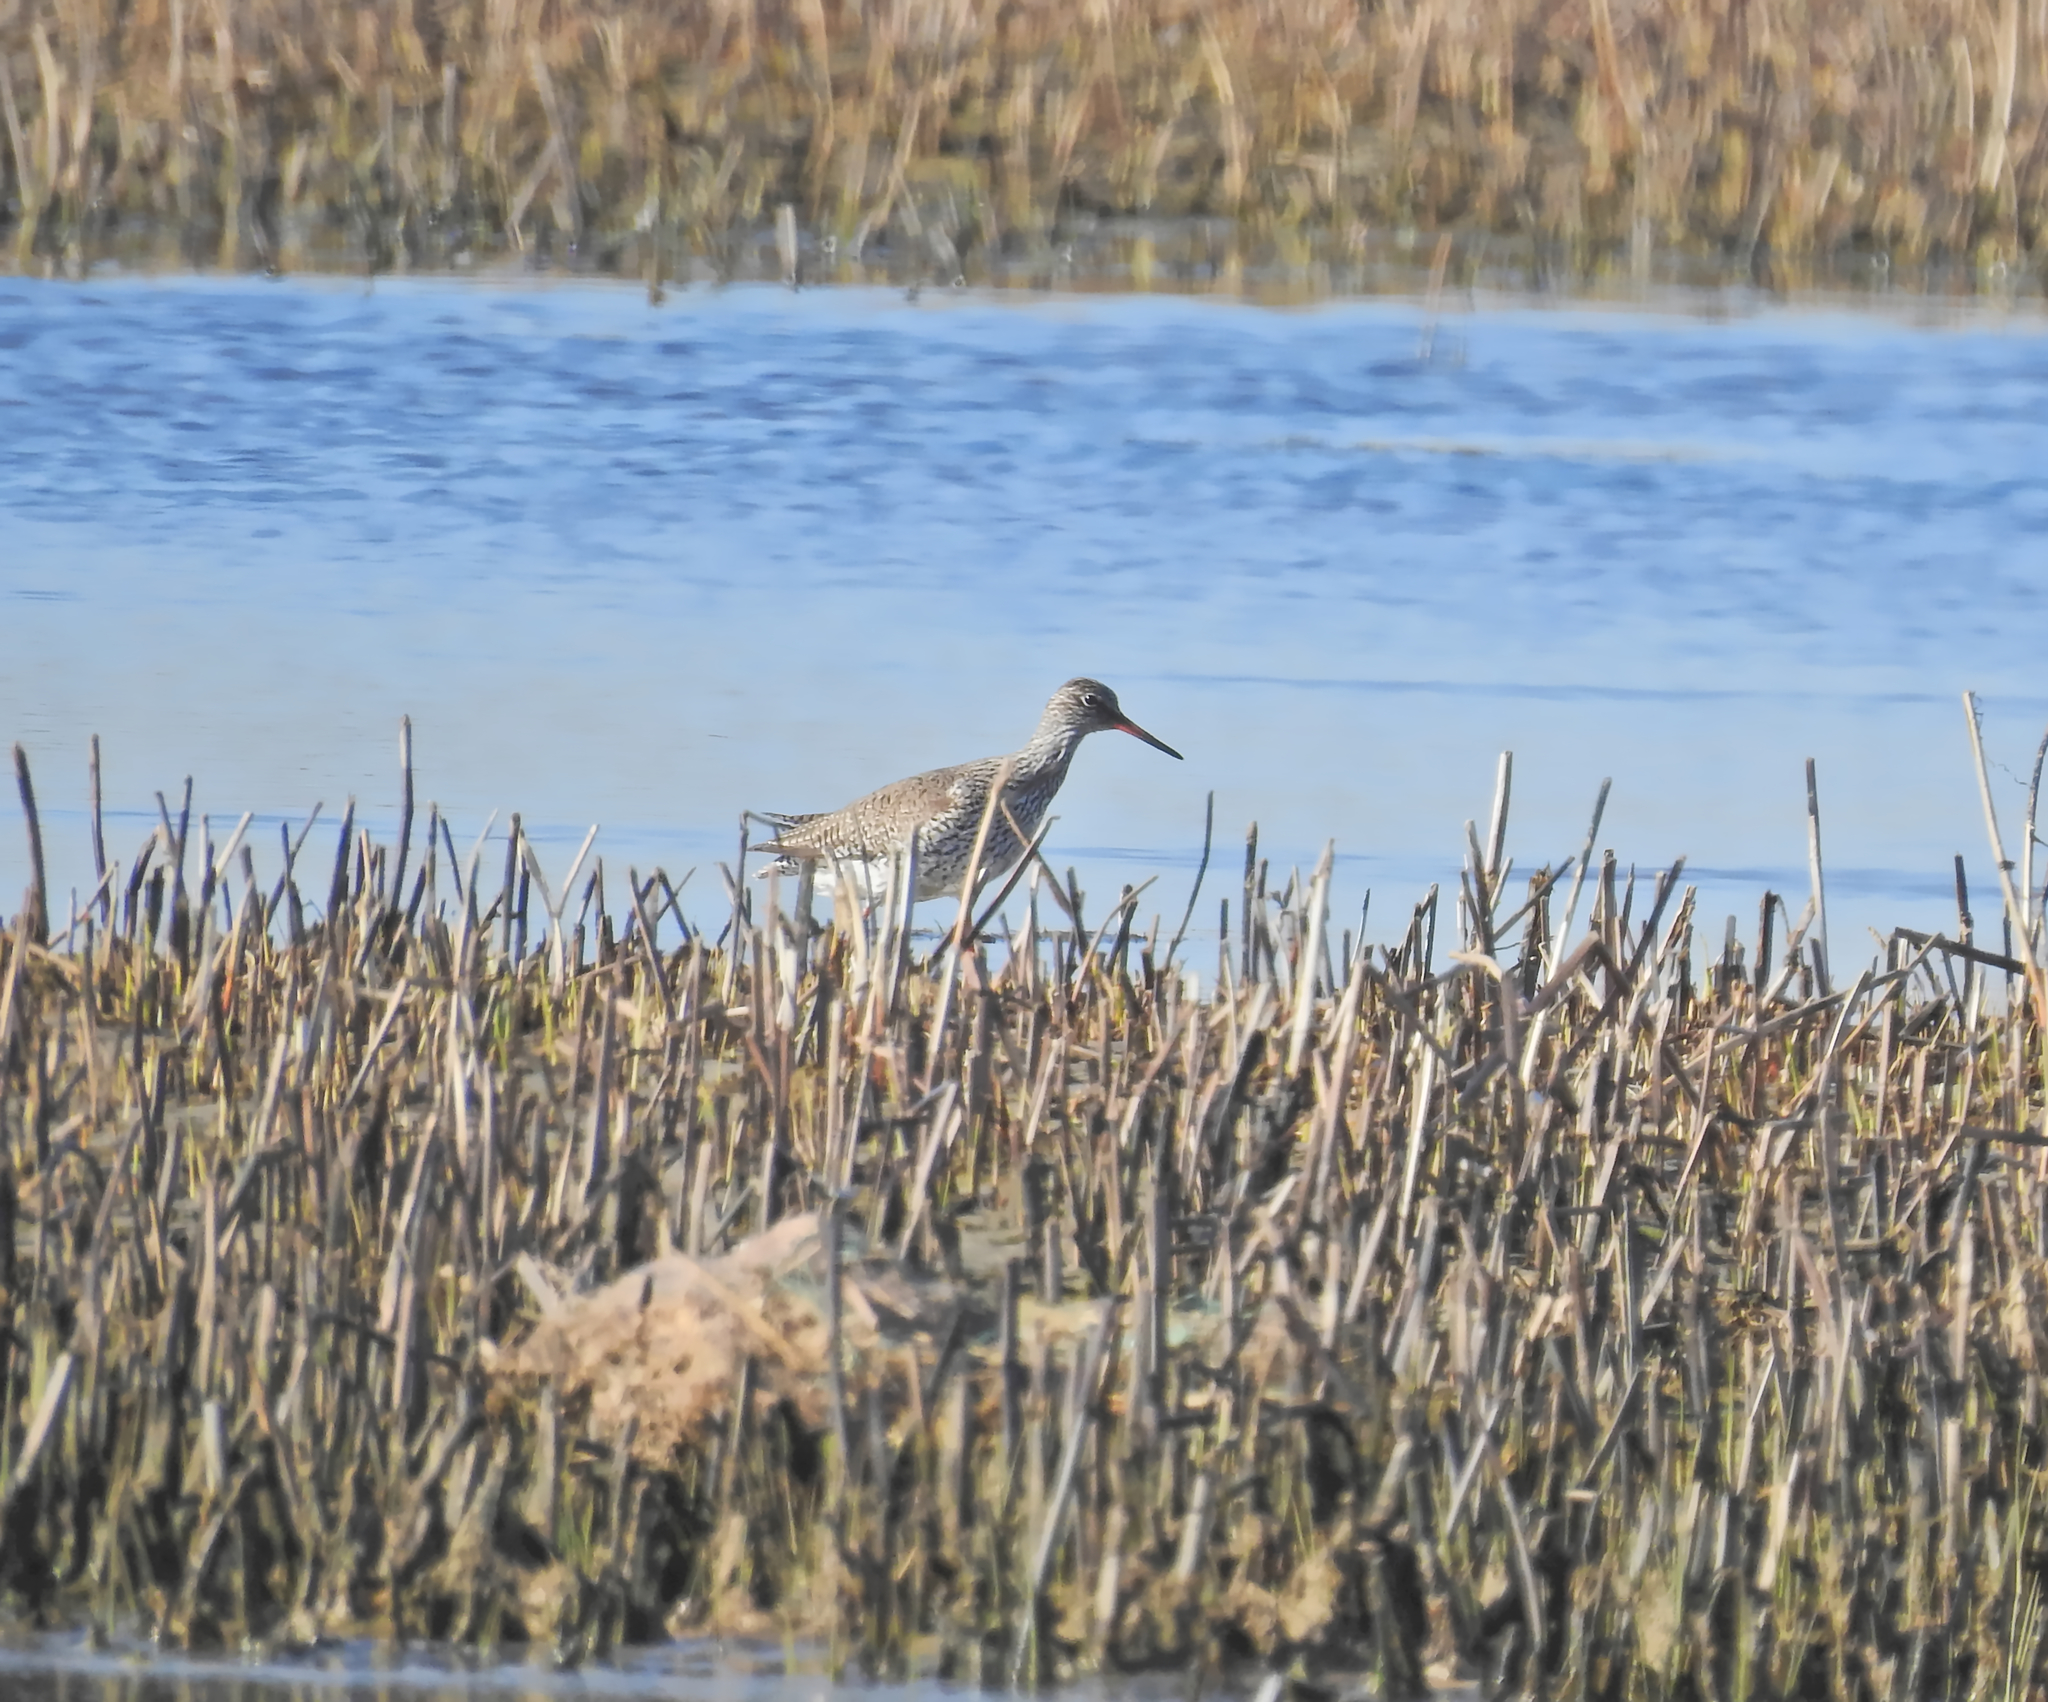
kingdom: Animalia
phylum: Chordata
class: Aves
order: Charadriiformes
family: Scolopacidae
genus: Tringa
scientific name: Tringa totanus
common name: Common redshank
